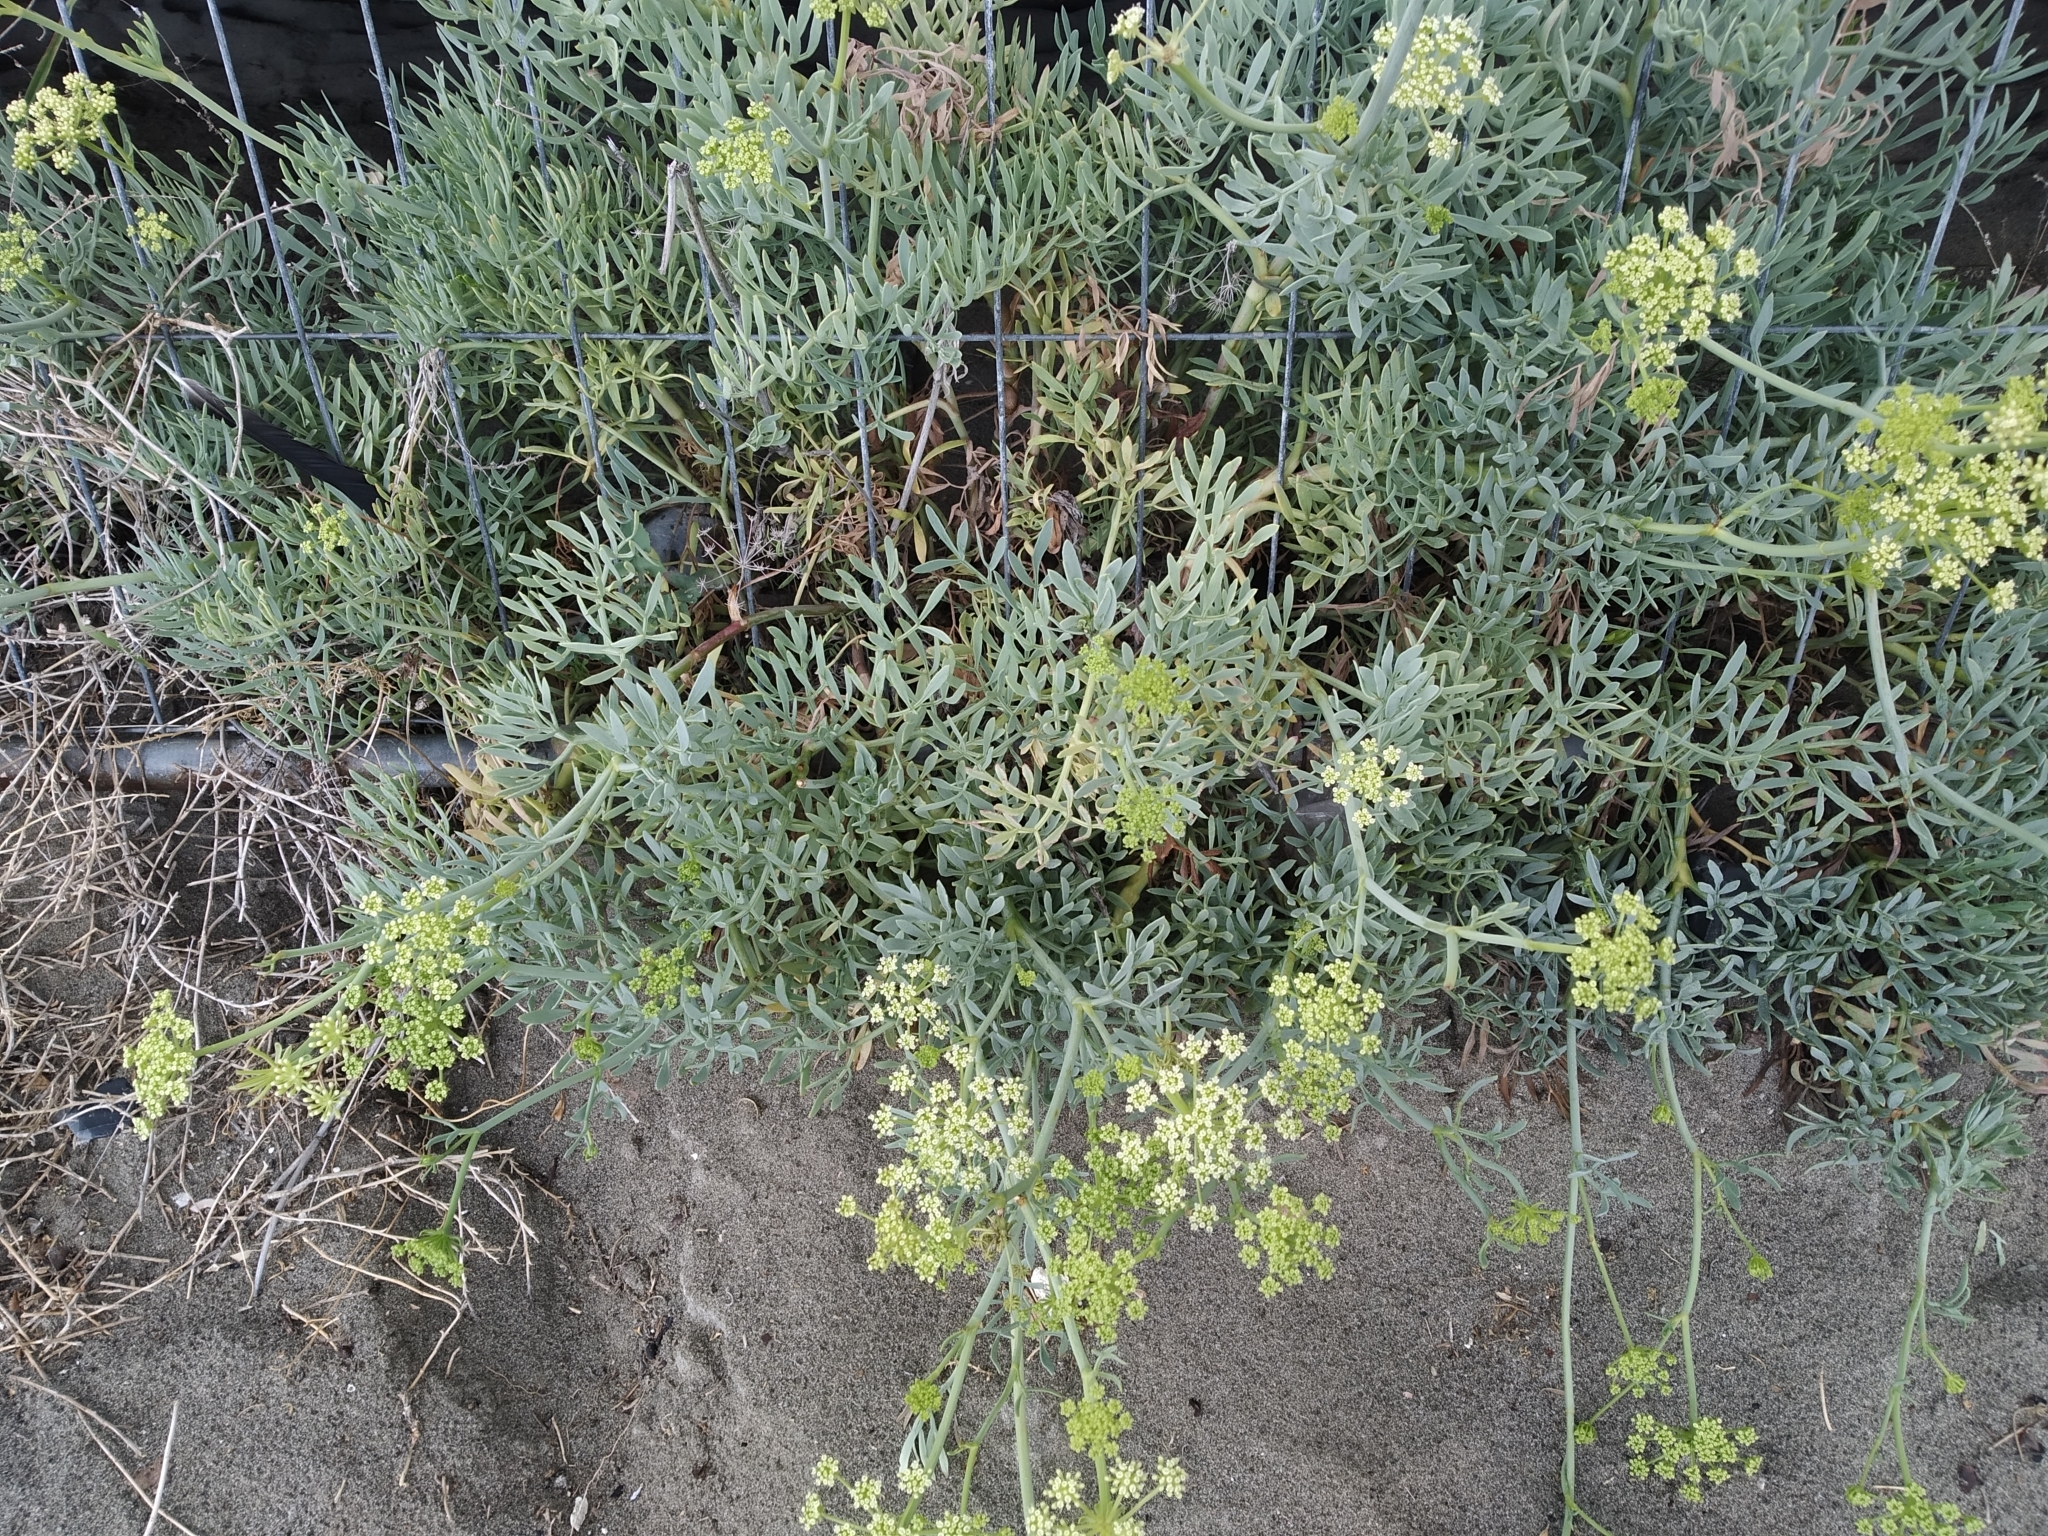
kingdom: Plantae
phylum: Tracheophyta
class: Magnoliopsida
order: Apiales
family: Apiaceae
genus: Crithmum
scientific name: Crithmum maritimum
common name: Rock samphire
